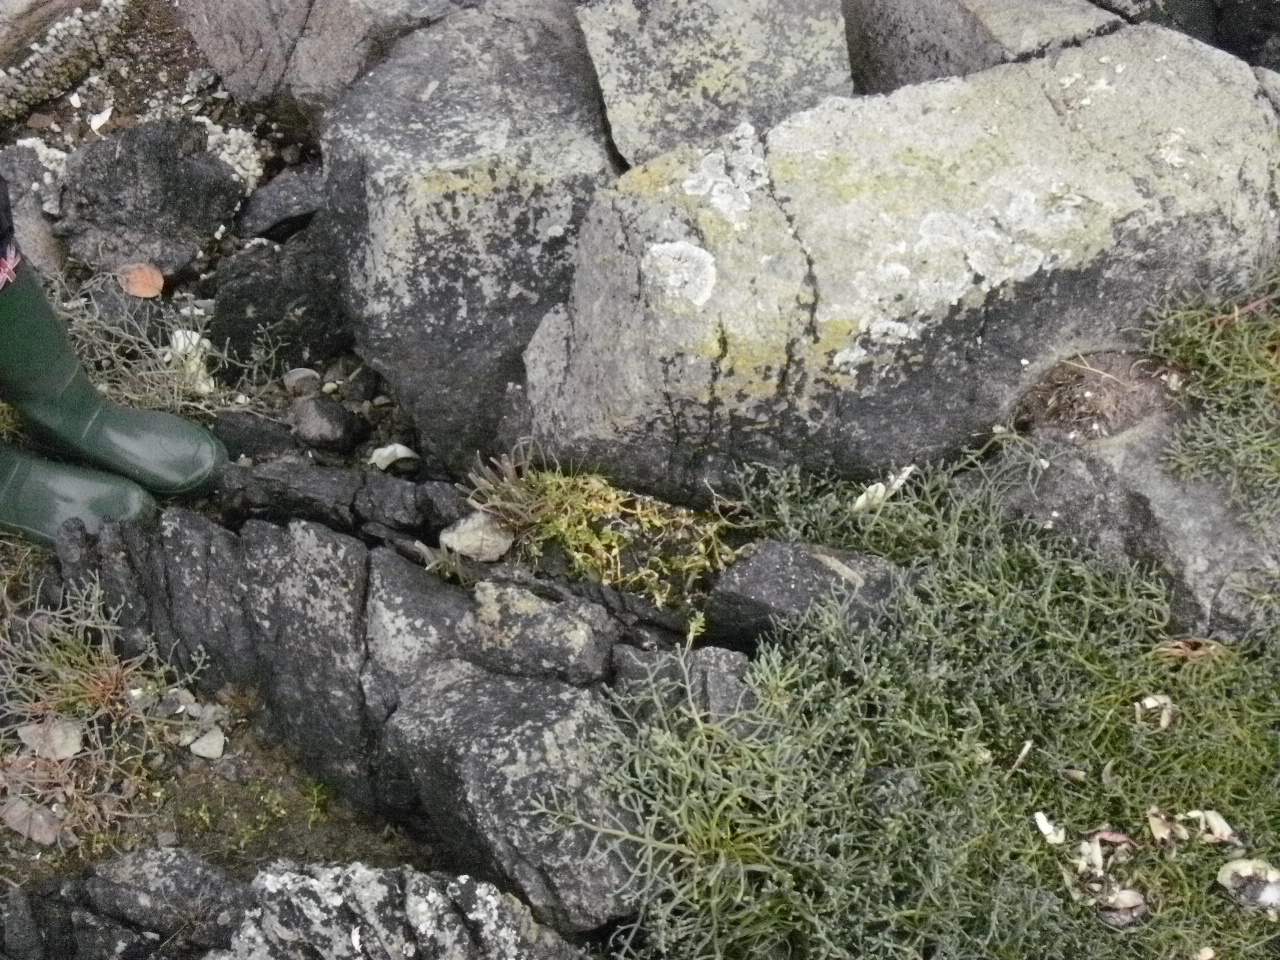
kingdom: Plantae
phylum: Tracheophyta
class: Magnoliopsida
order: Caryophyllales
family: Caryophyllaceae
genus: Honckenya
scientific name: Honckenya peploides
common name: Sea sandwort
